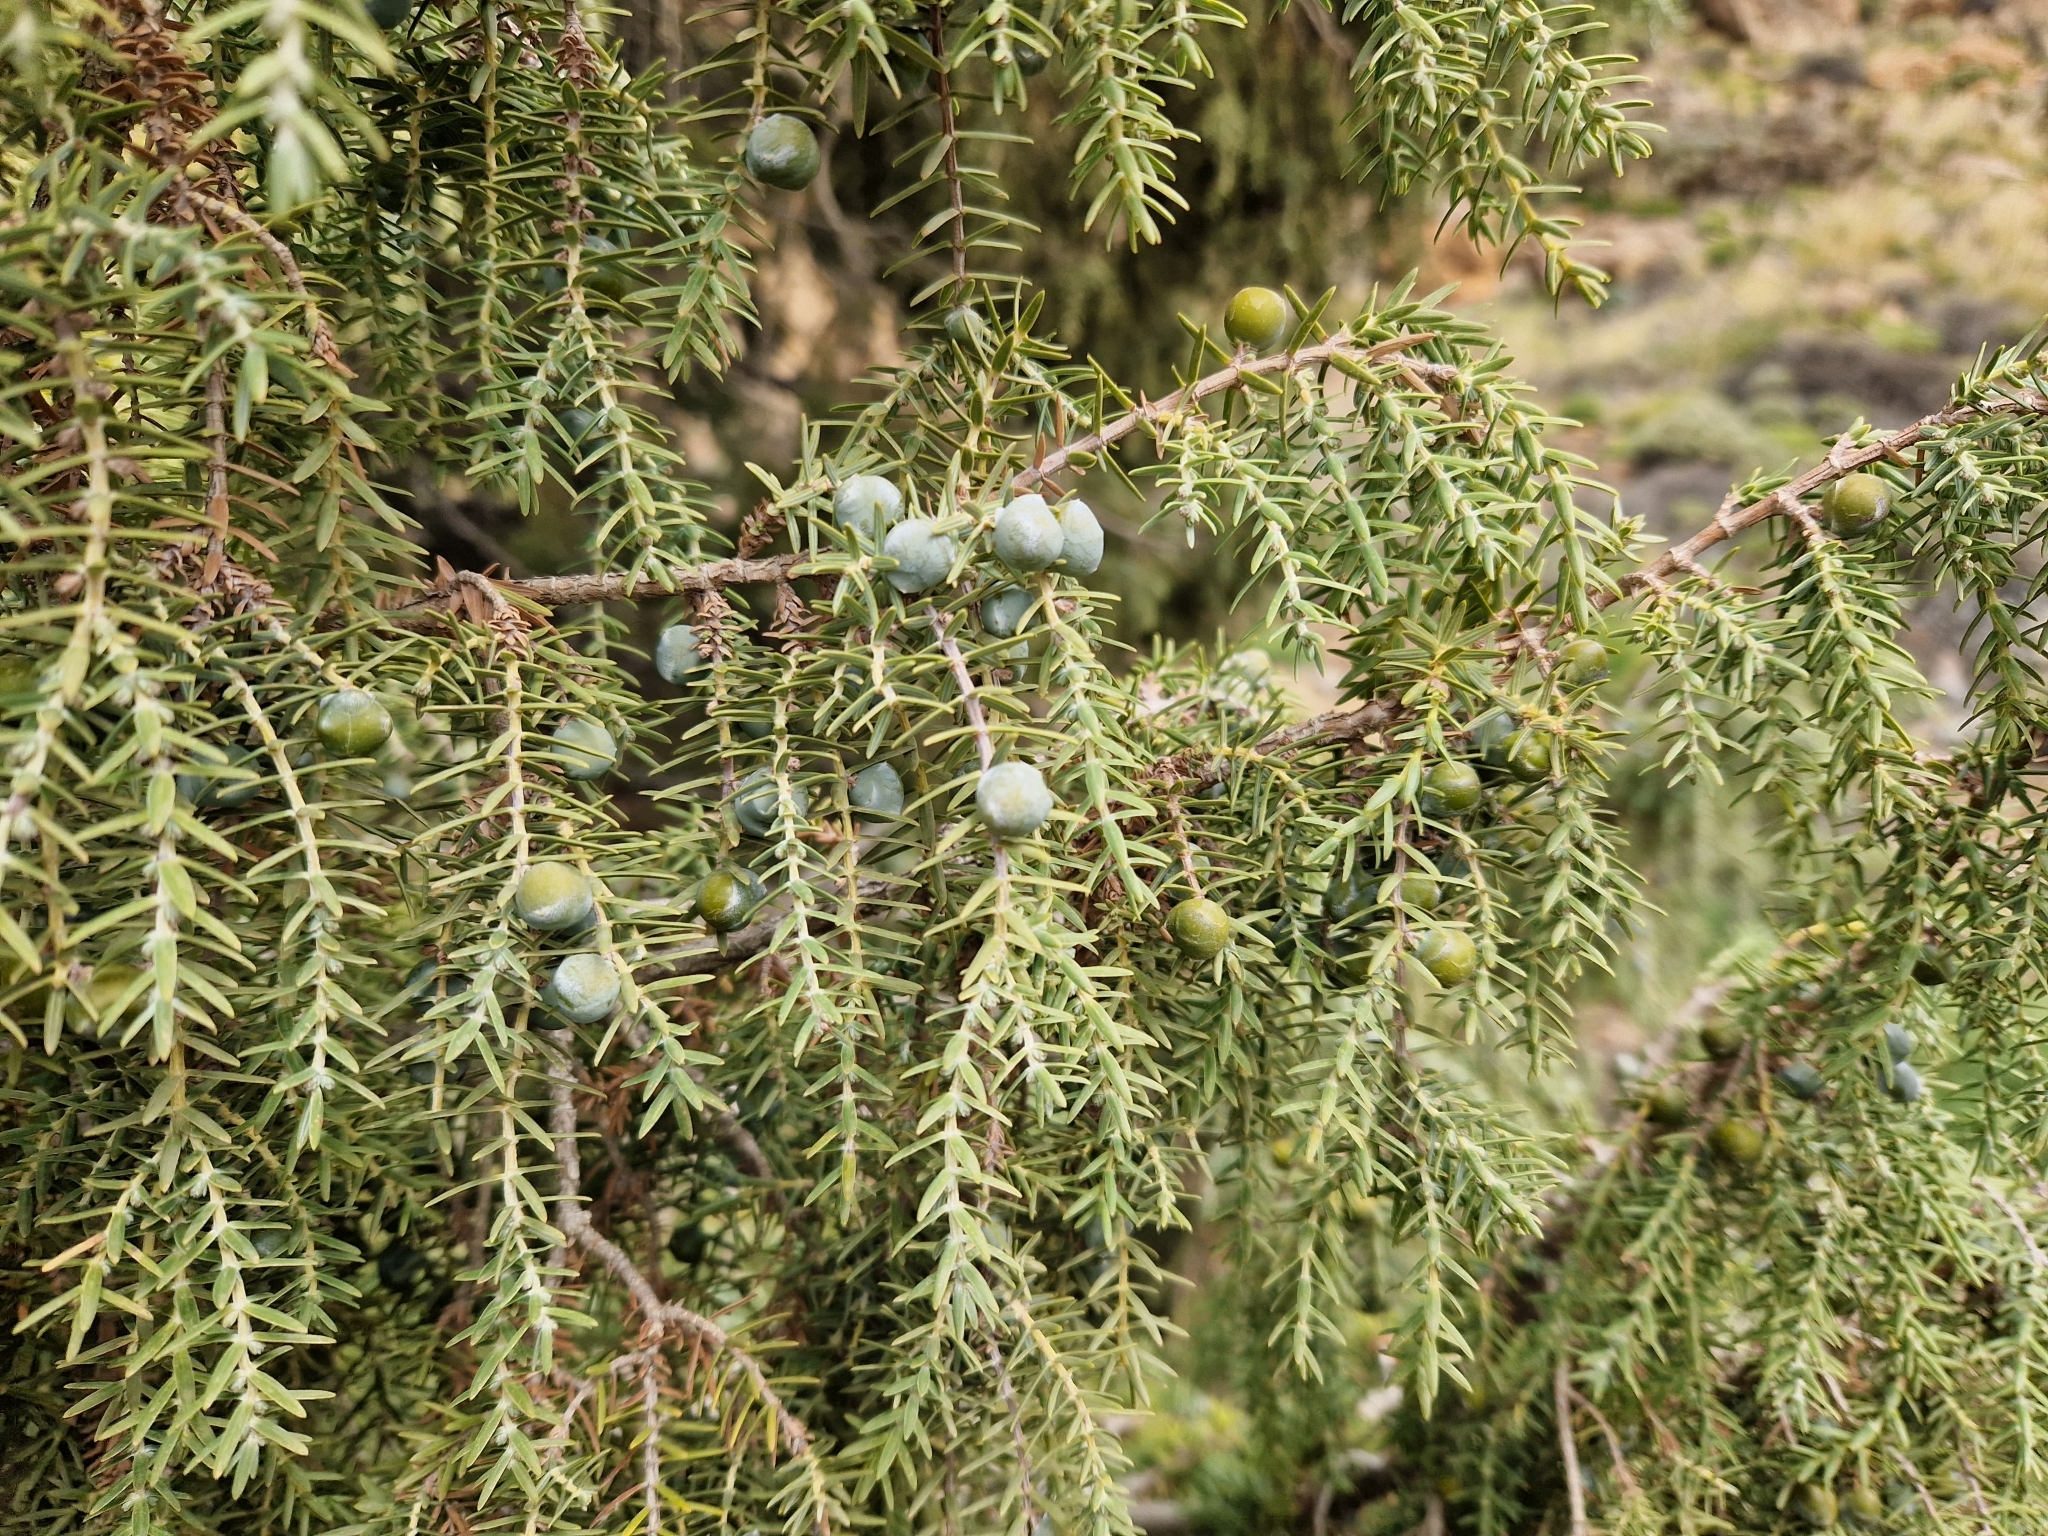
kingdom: Plantae
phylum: Tracheophyta
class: Pinopsida
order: Pinales
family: Cupressaceae
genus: Juniperus
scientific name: Juniperus cedrus
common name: Canary islands juniper
